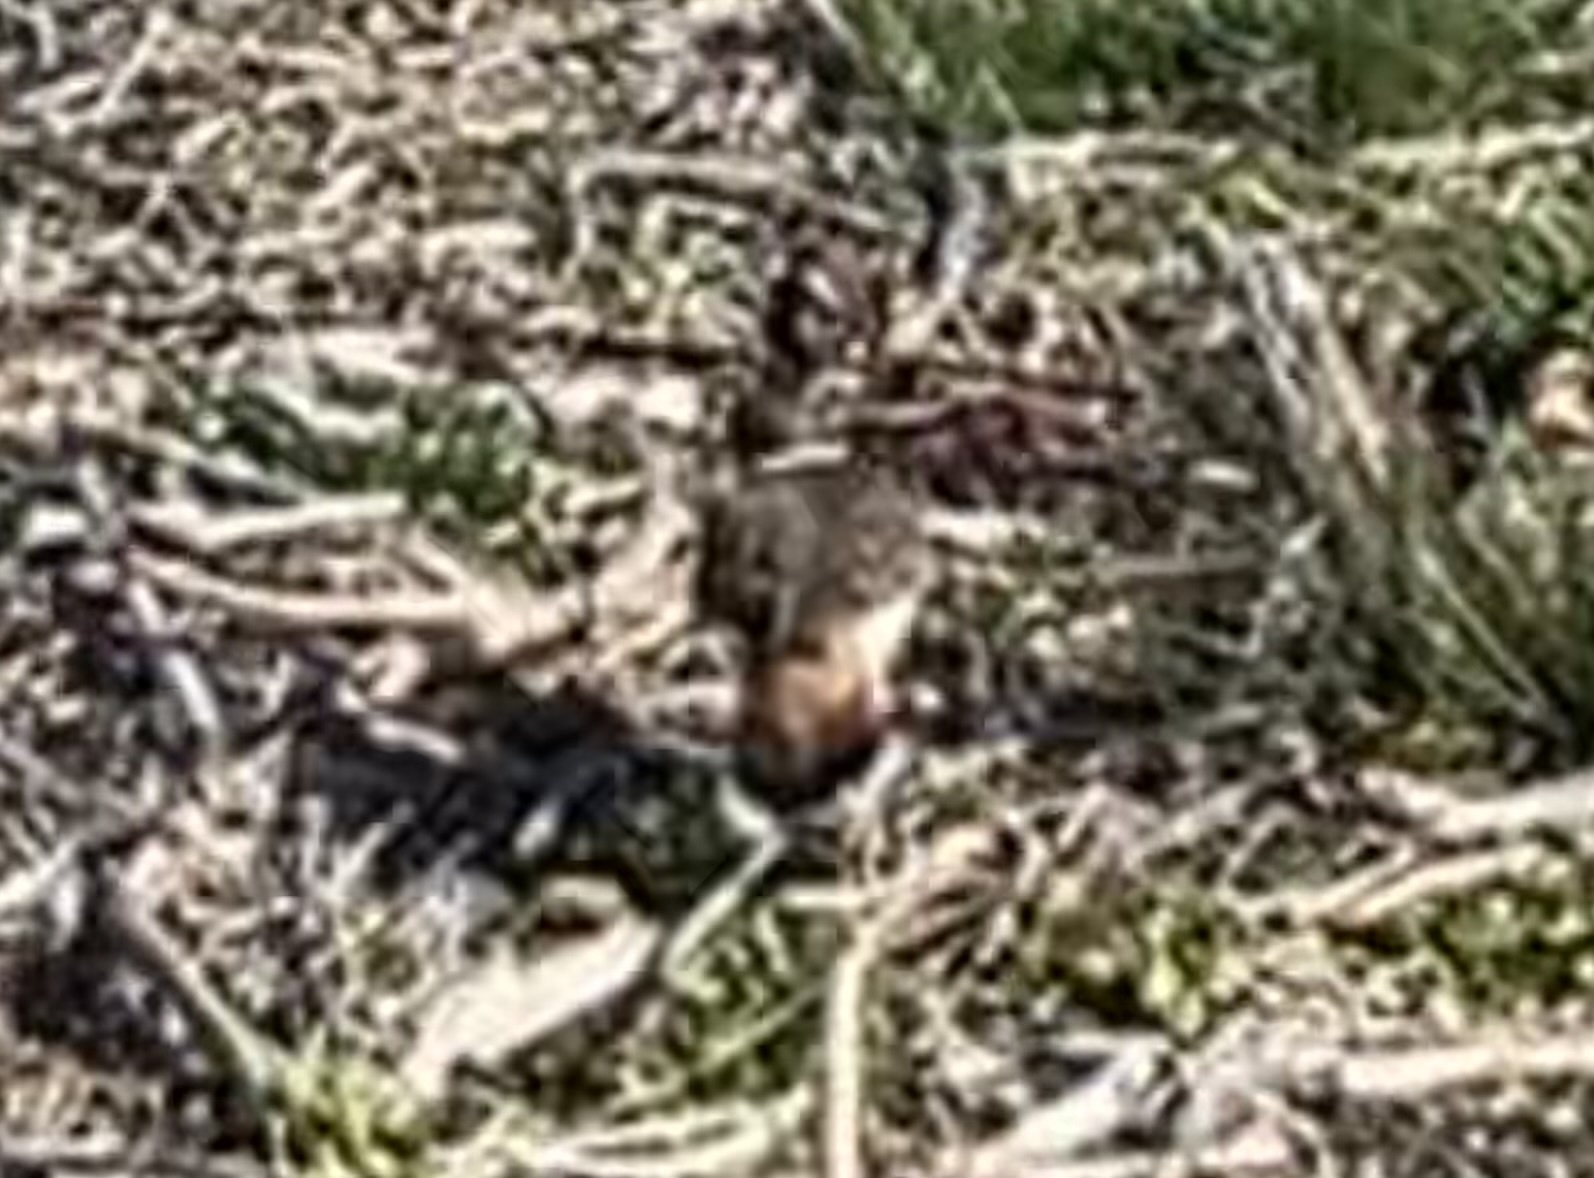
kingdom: Animalia
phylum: Chordata
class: Aves
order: Charadriiformes
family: Charadriidae
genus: Charadrius
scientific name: Charadrius vociferus
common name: Killdeer
